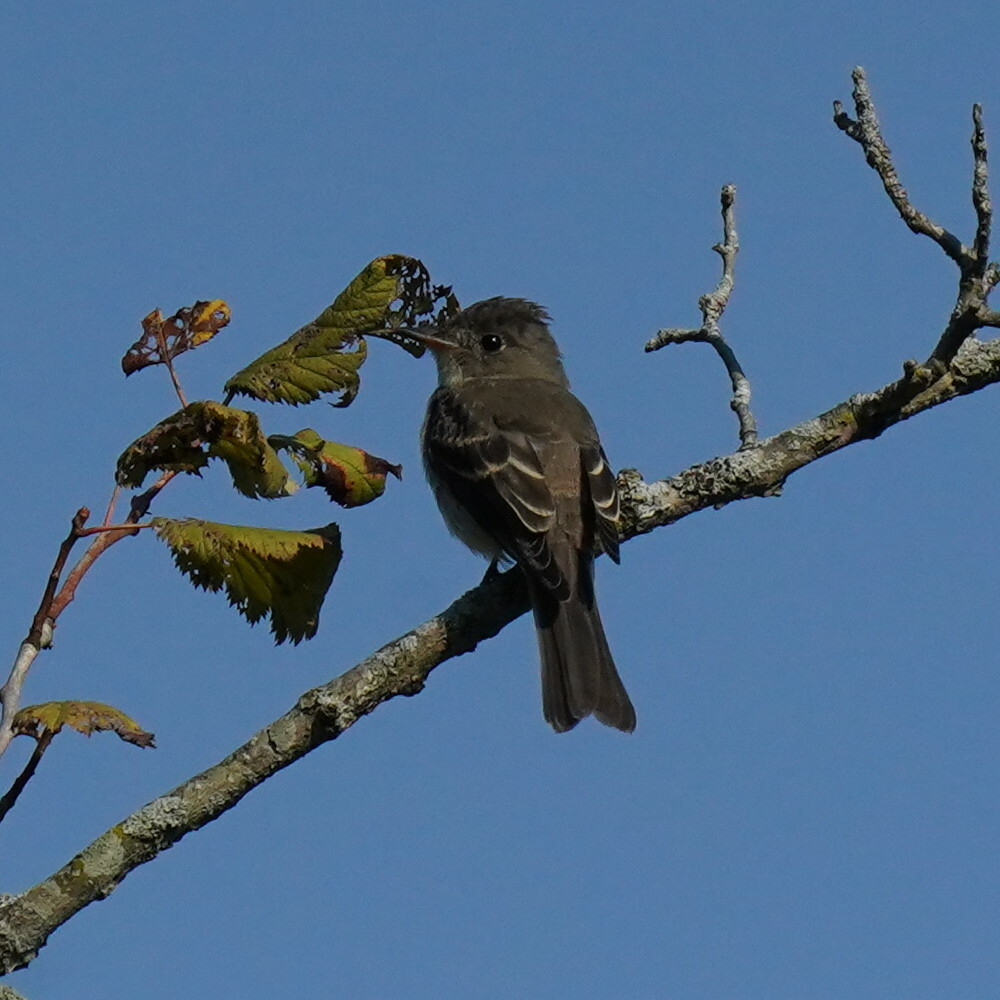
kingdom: Animalia
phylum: Chordata
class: Aves
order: Passeriformes
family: Tyrannidae
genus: Contopus
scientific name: Contopus virens
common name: Eastern wood-pewee
